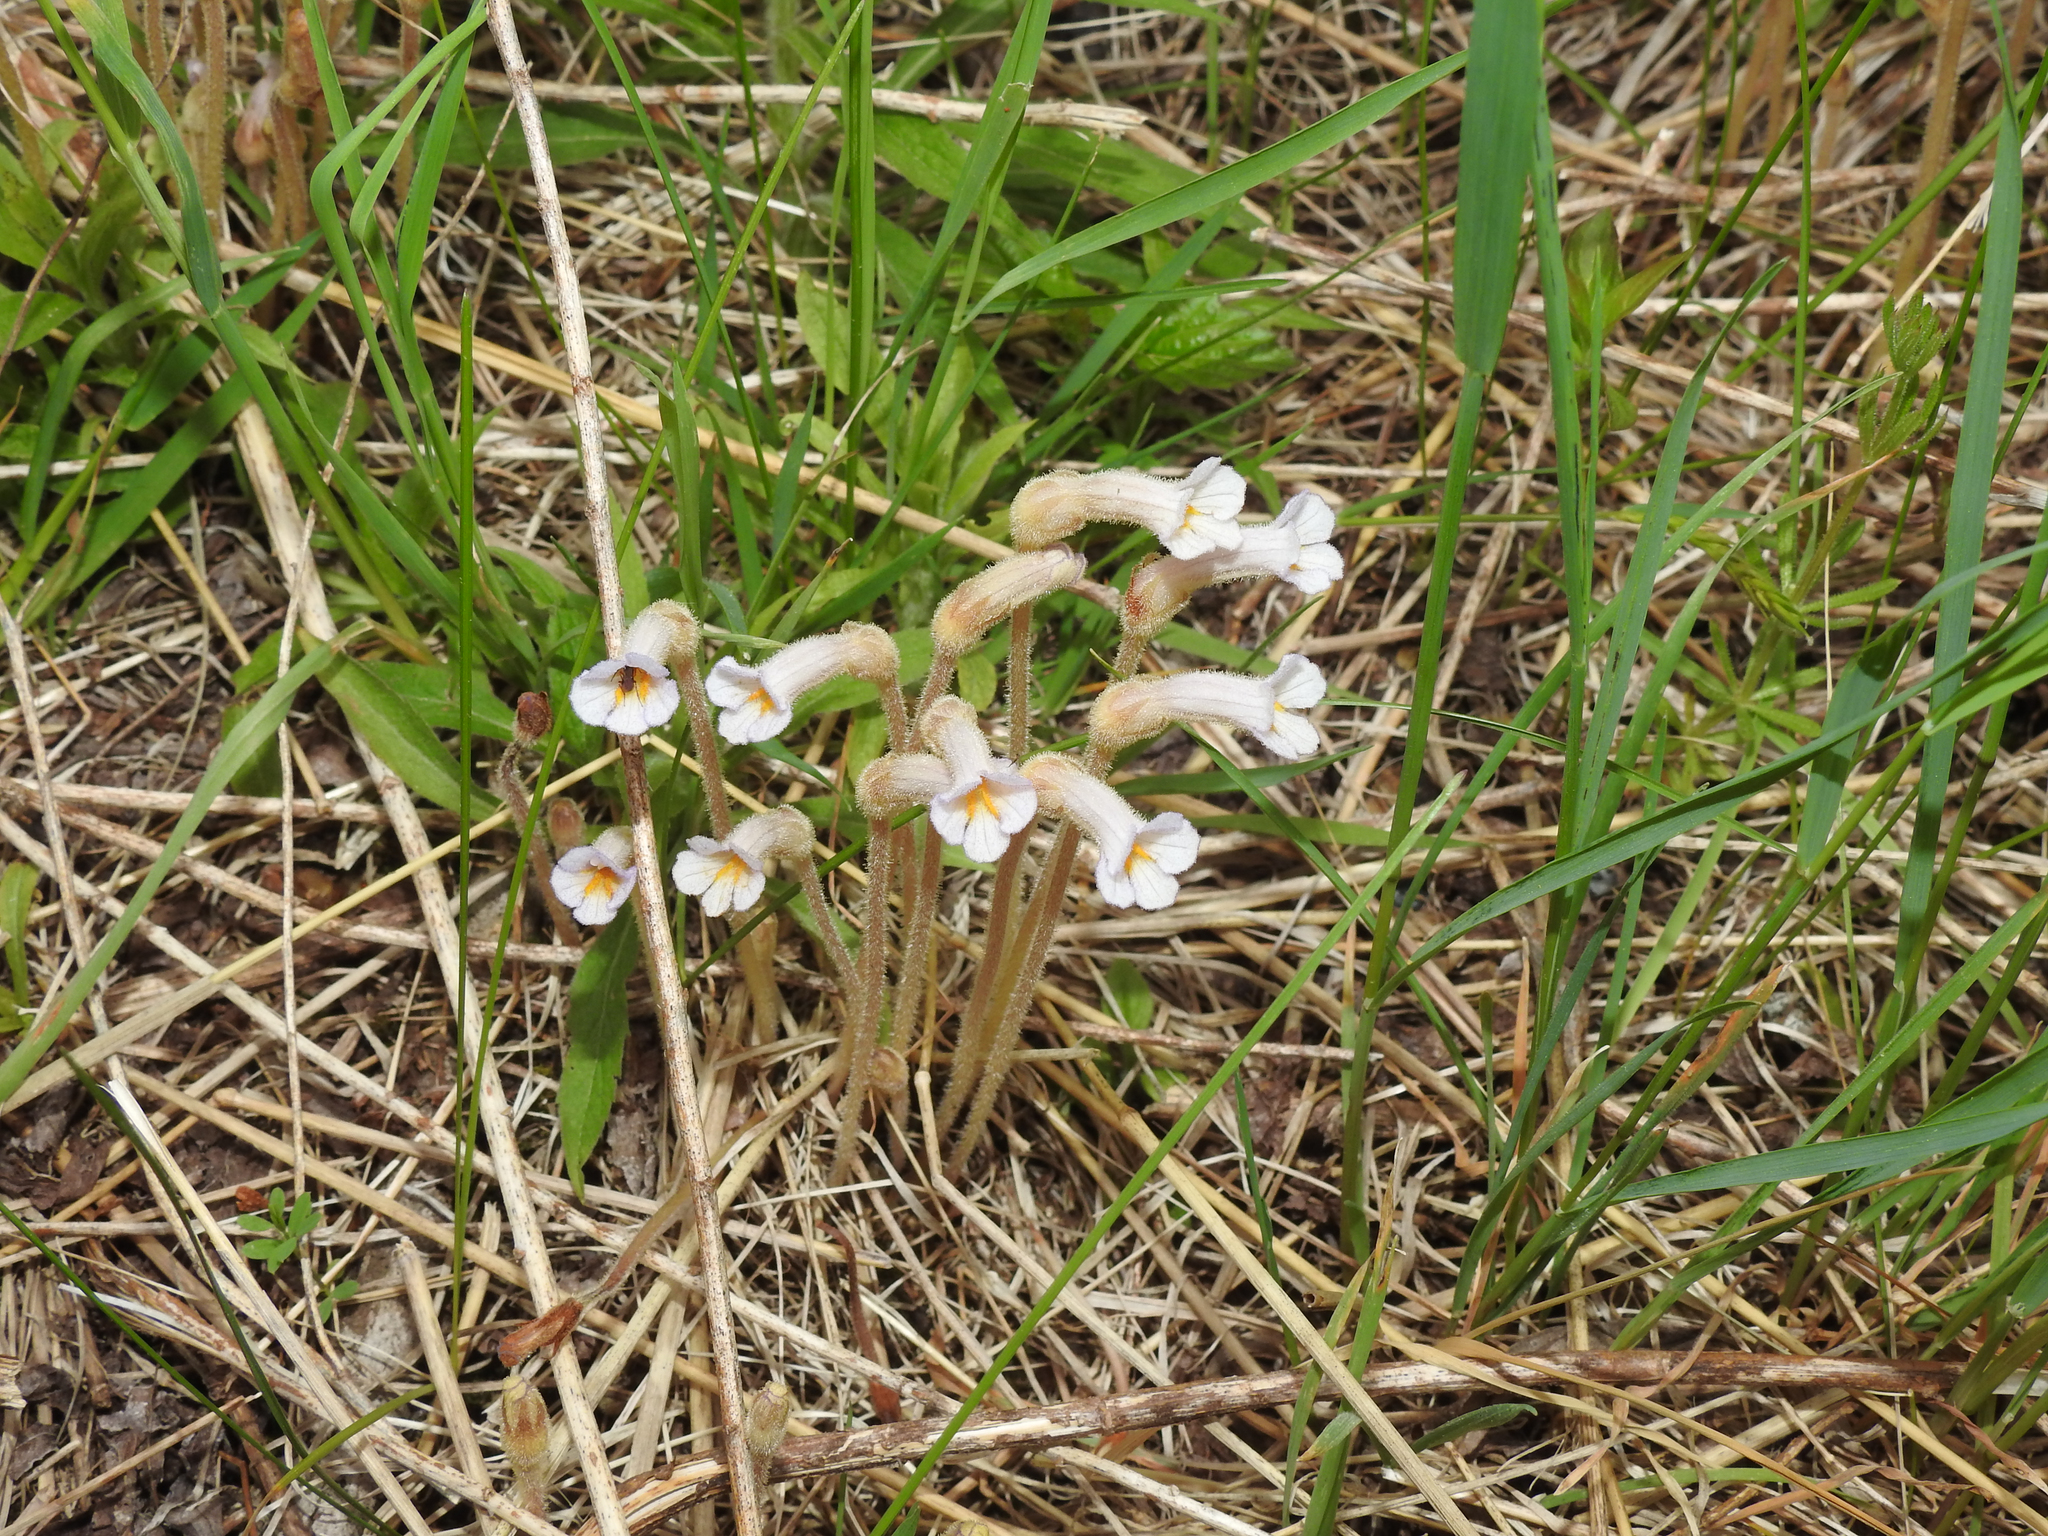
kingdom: Plantae
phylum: Tracheophyta
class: Magnoliopsida
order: Lamiales
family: Orobanchaceae
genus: Aphyllon
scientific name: Aphyllon uniflorum
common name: One-flowered broomrape
